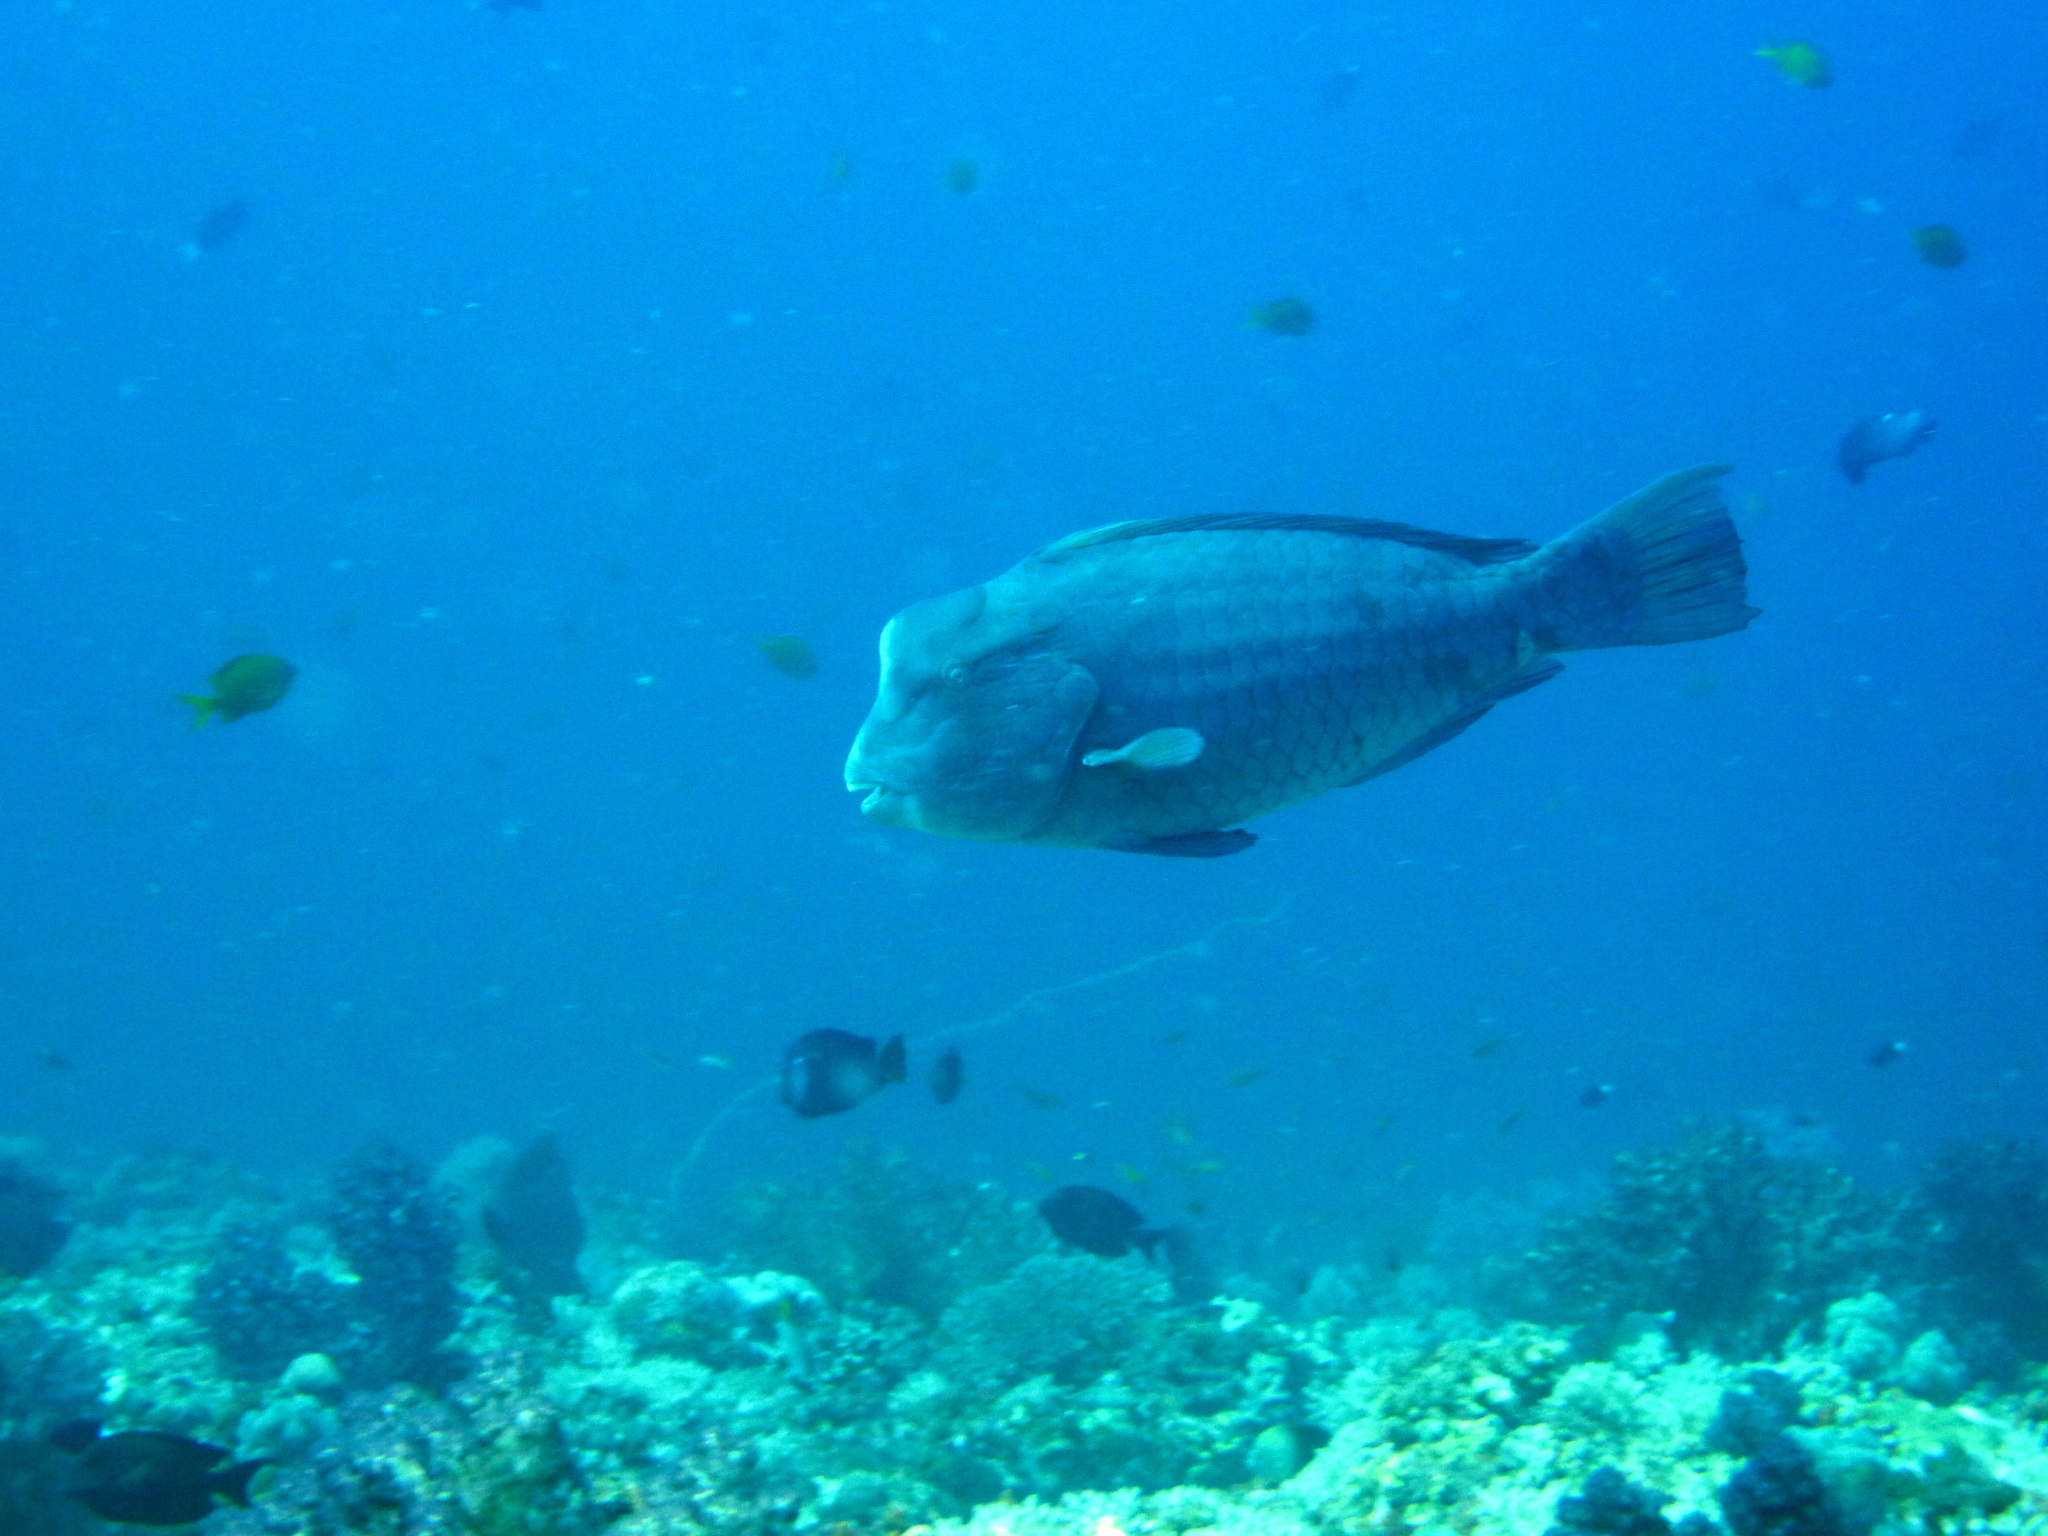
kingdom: Animalia
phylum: Chordata
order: Perciformes
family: Scaridae
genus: Bolbometopon
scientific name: Bolbometopon muricatum
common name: Humphead parrotfish
